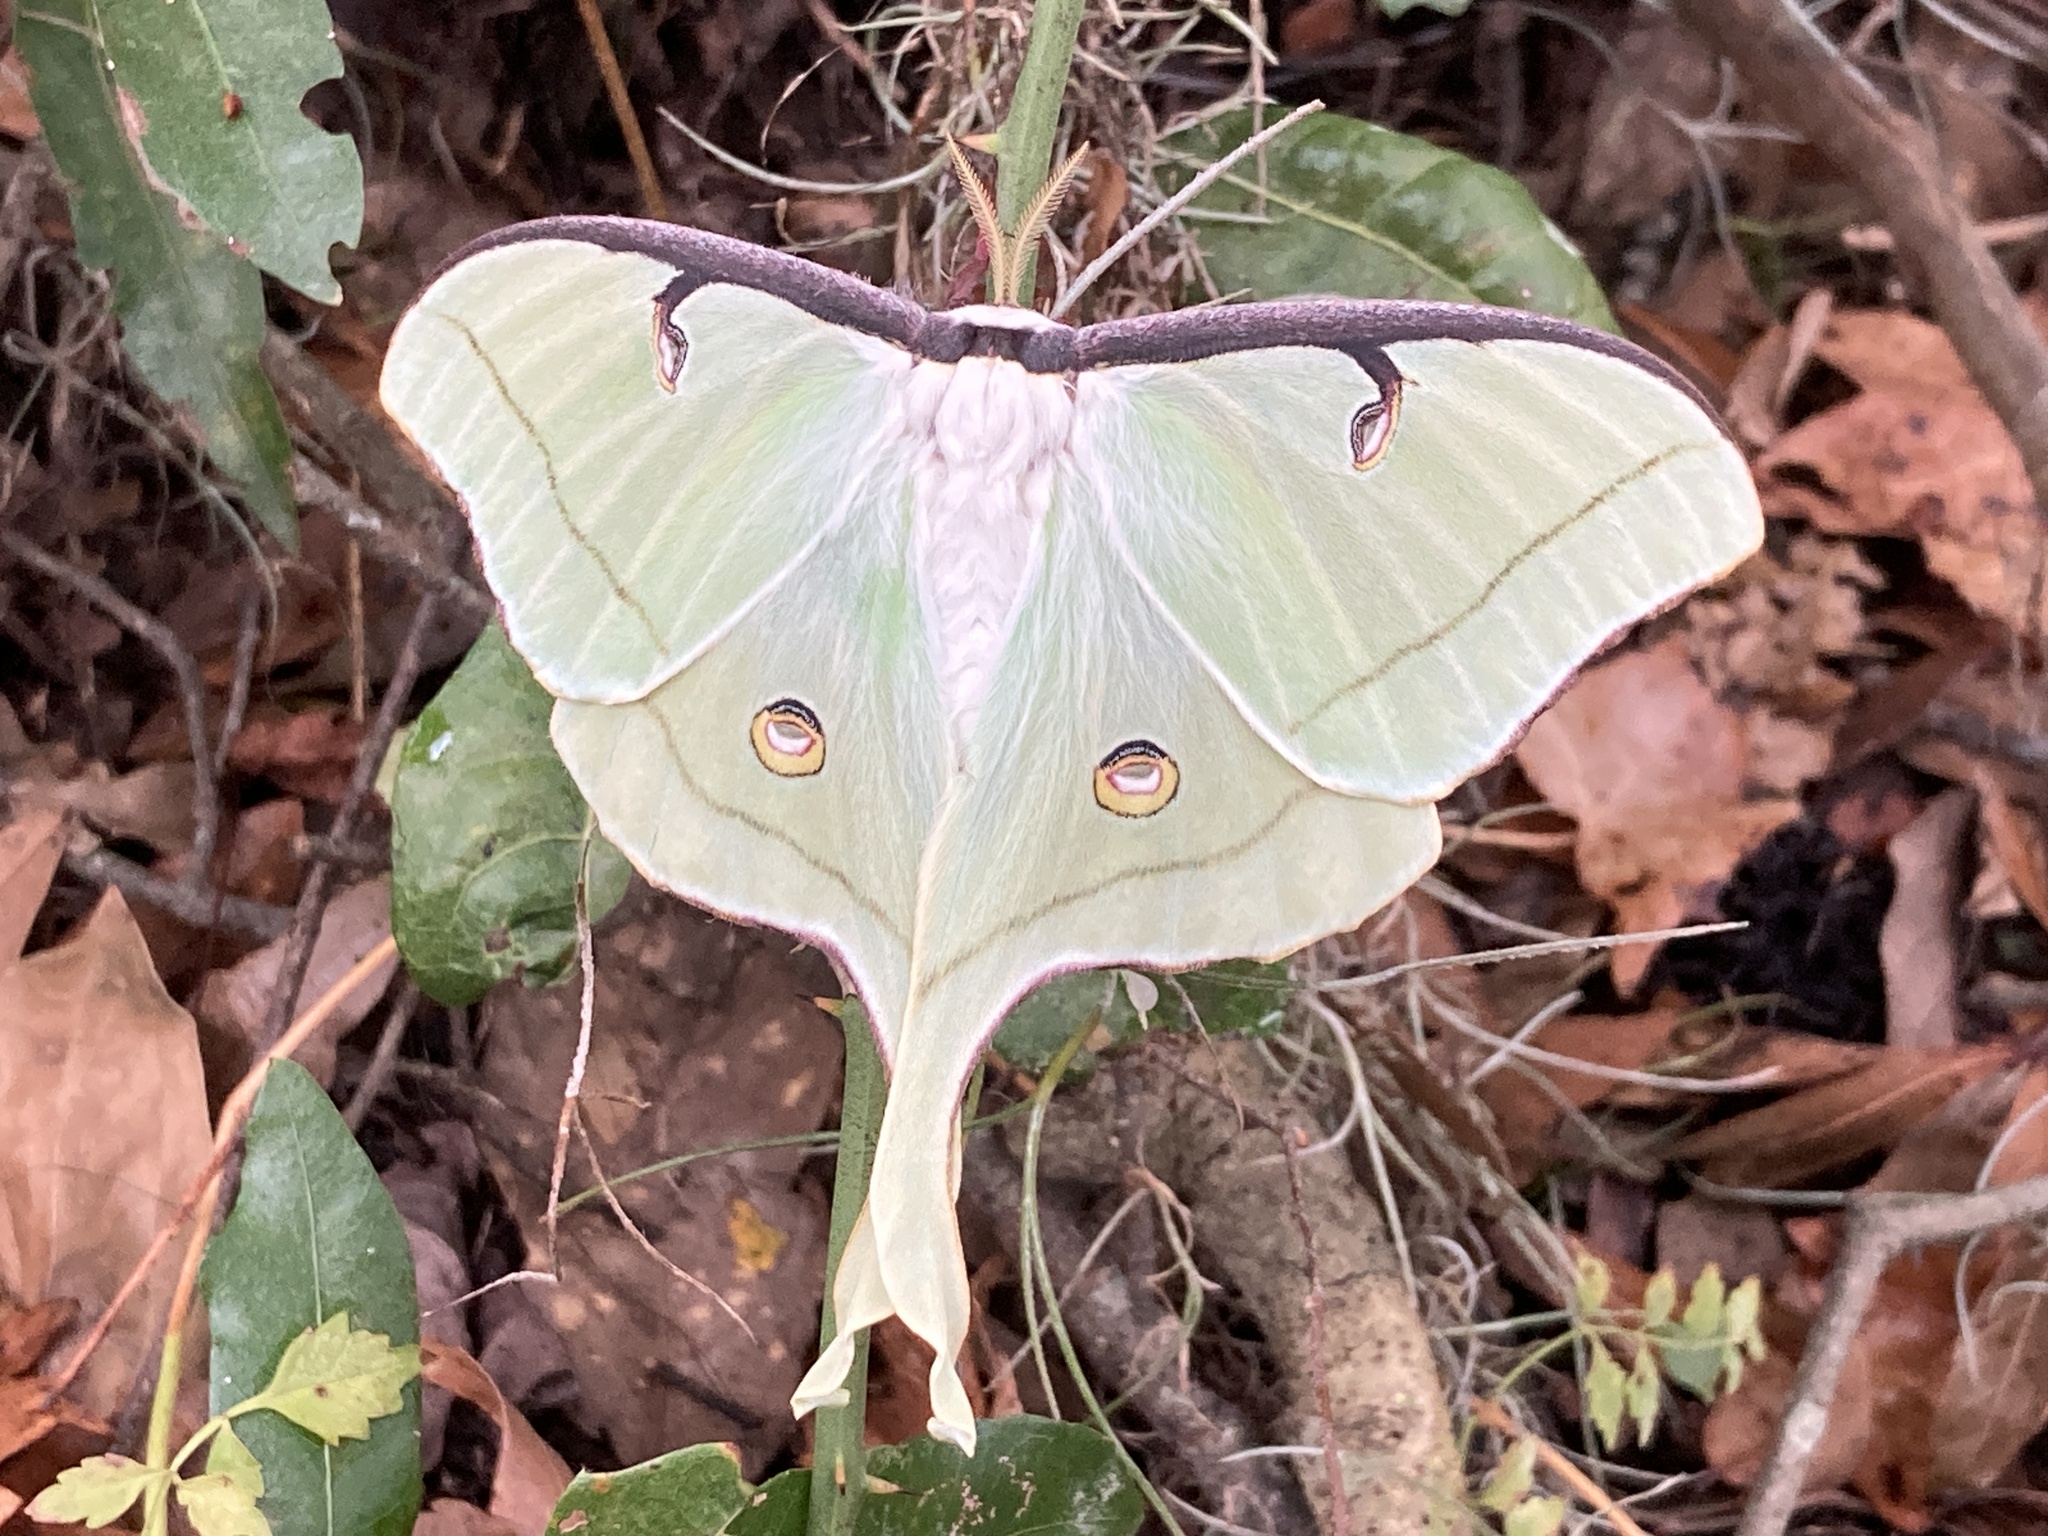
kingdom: Animalia
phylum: Arthropoda
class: Insecta
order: Lepidoptera
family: Saturniidae
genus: Actias
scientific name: Actias luna
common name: Luna moth
